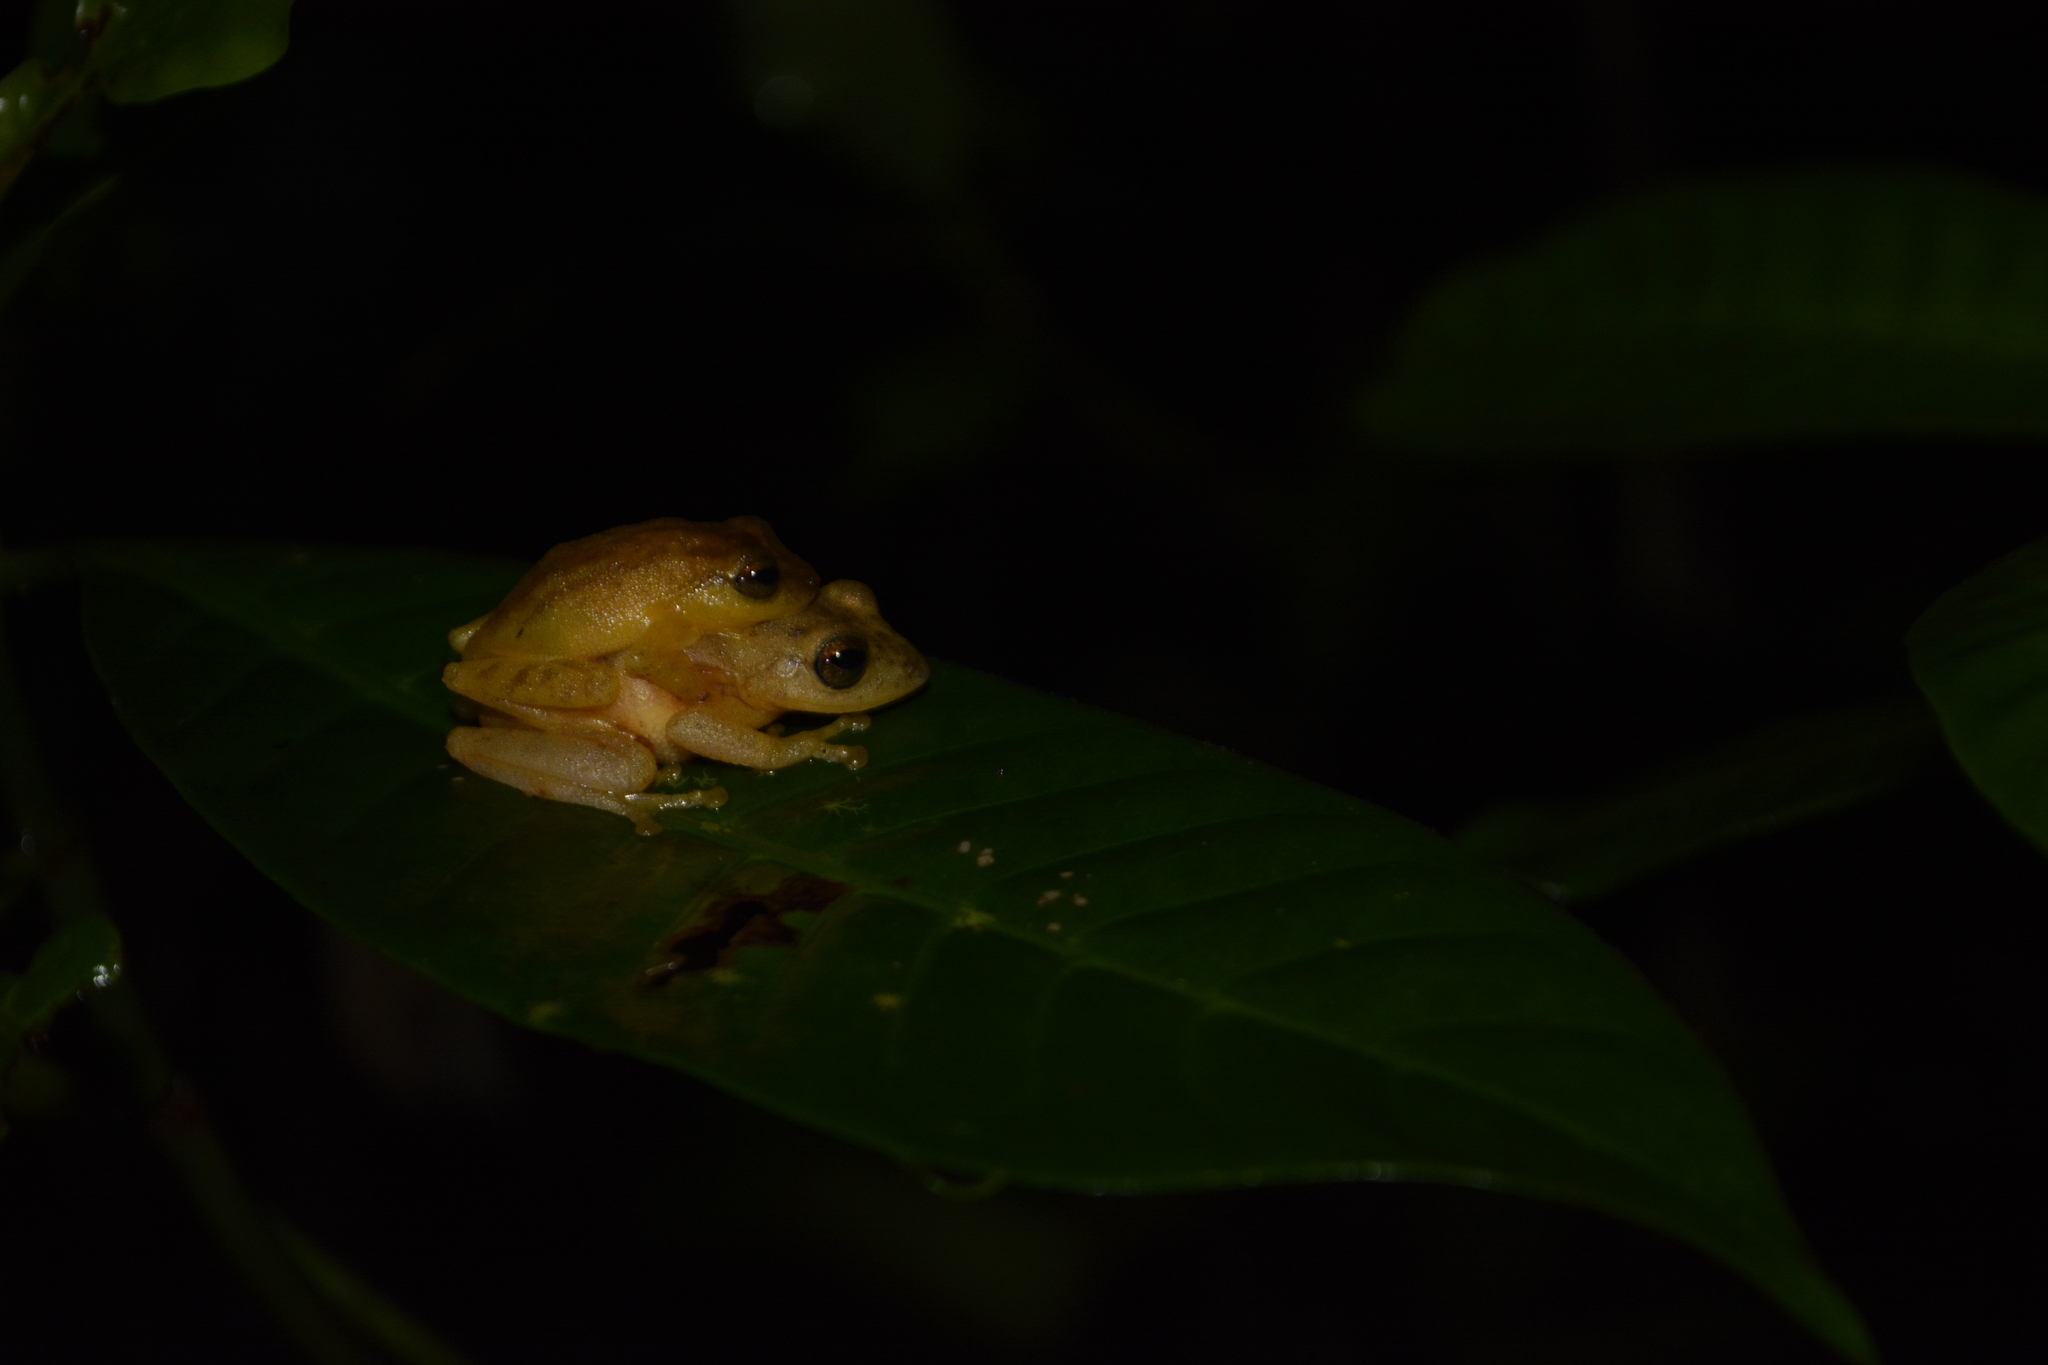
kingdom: Animalia
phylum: Chordata
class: Amphibia
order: Anura
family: Rhacophoridae
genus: Raorchestes
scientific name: Raorchestes luteolus
